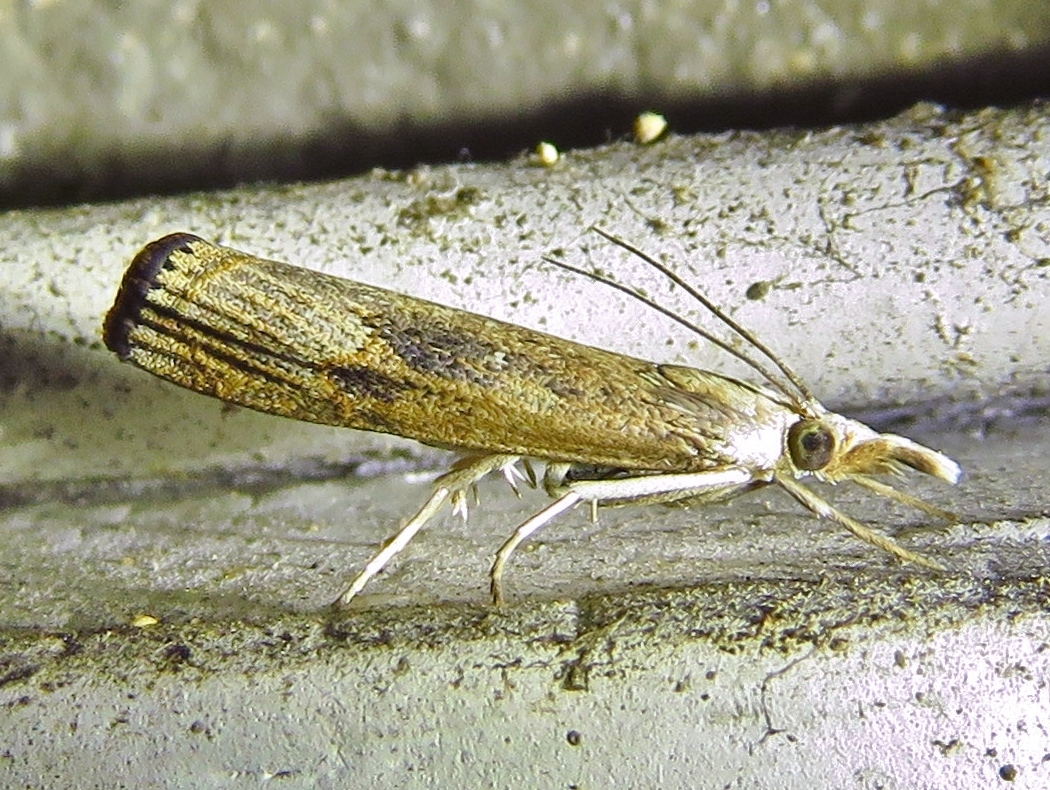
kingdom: Animalia
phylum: Arthropoda
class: Insecta
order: Lepidoptera
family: Crambidae
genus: Parapediasia
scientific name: Parapediasia teterellus
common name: Bluegrass webworm moth
